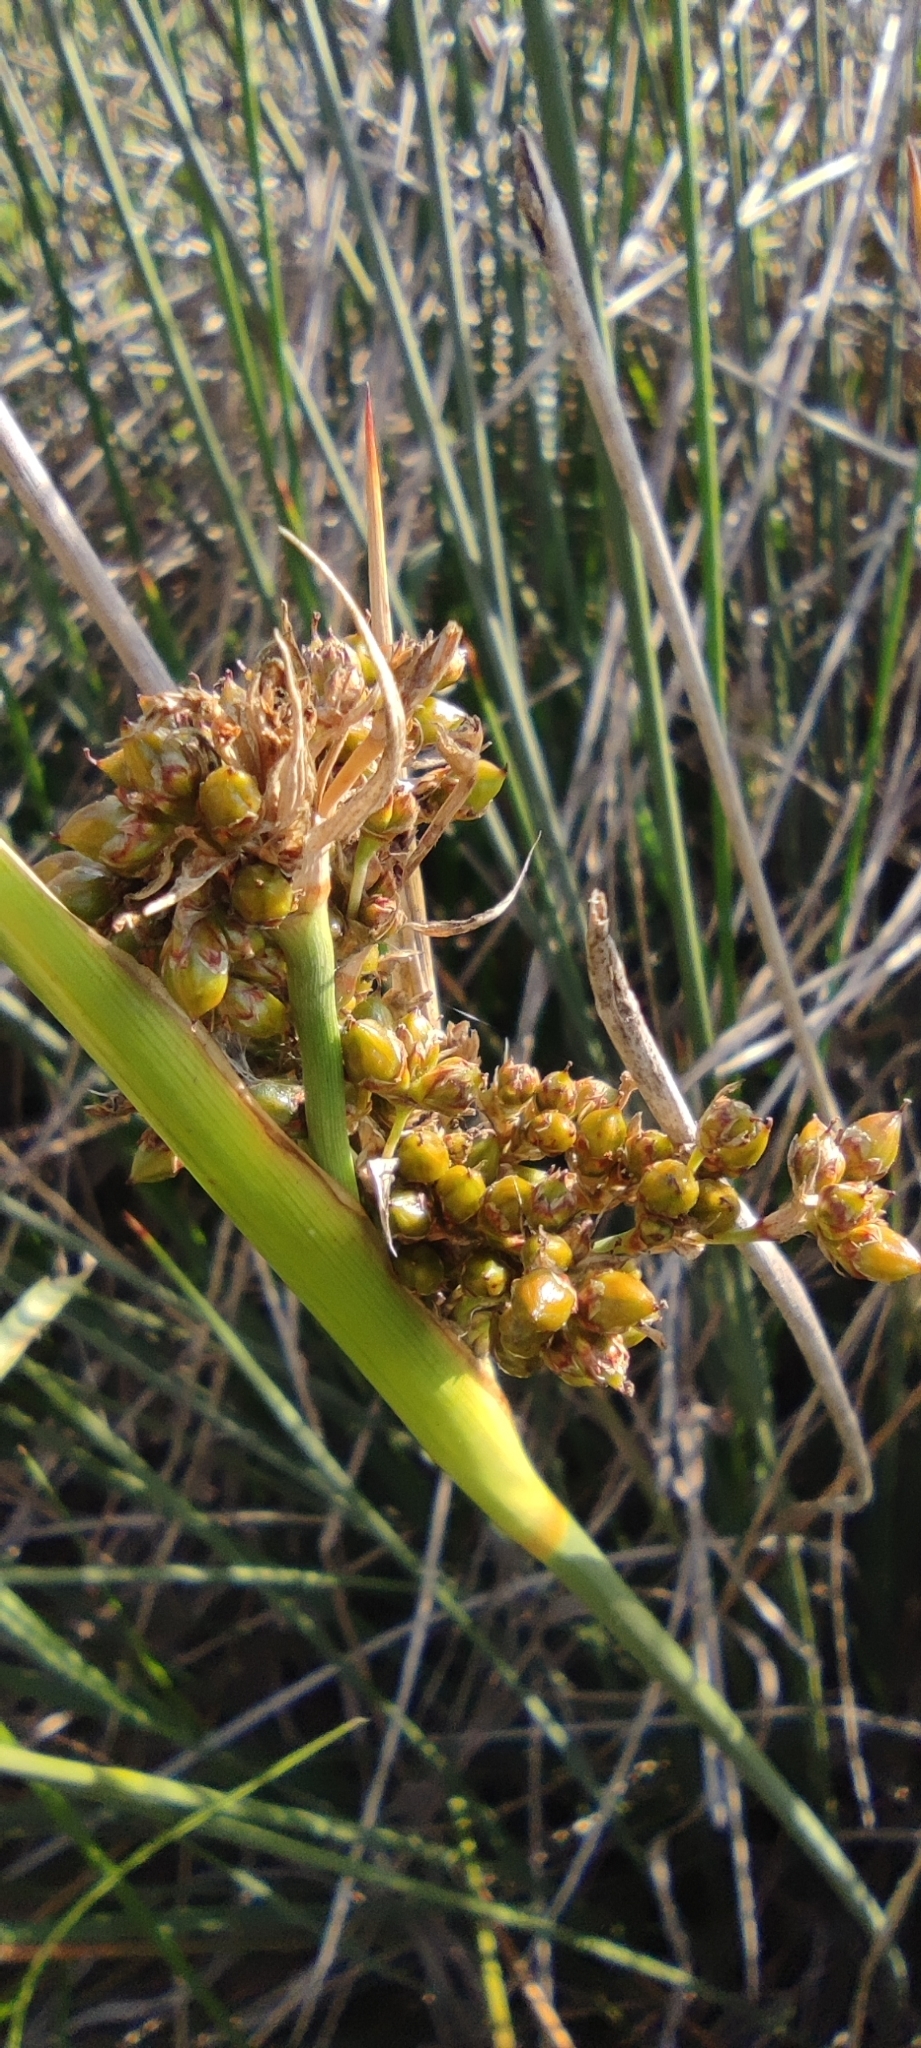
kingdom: Plantae
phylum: Tracheophyta
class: Liliopsida
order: Poales
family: Juncaceae
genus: Juncus
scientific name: Juncus acutus
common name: Sharp rush
